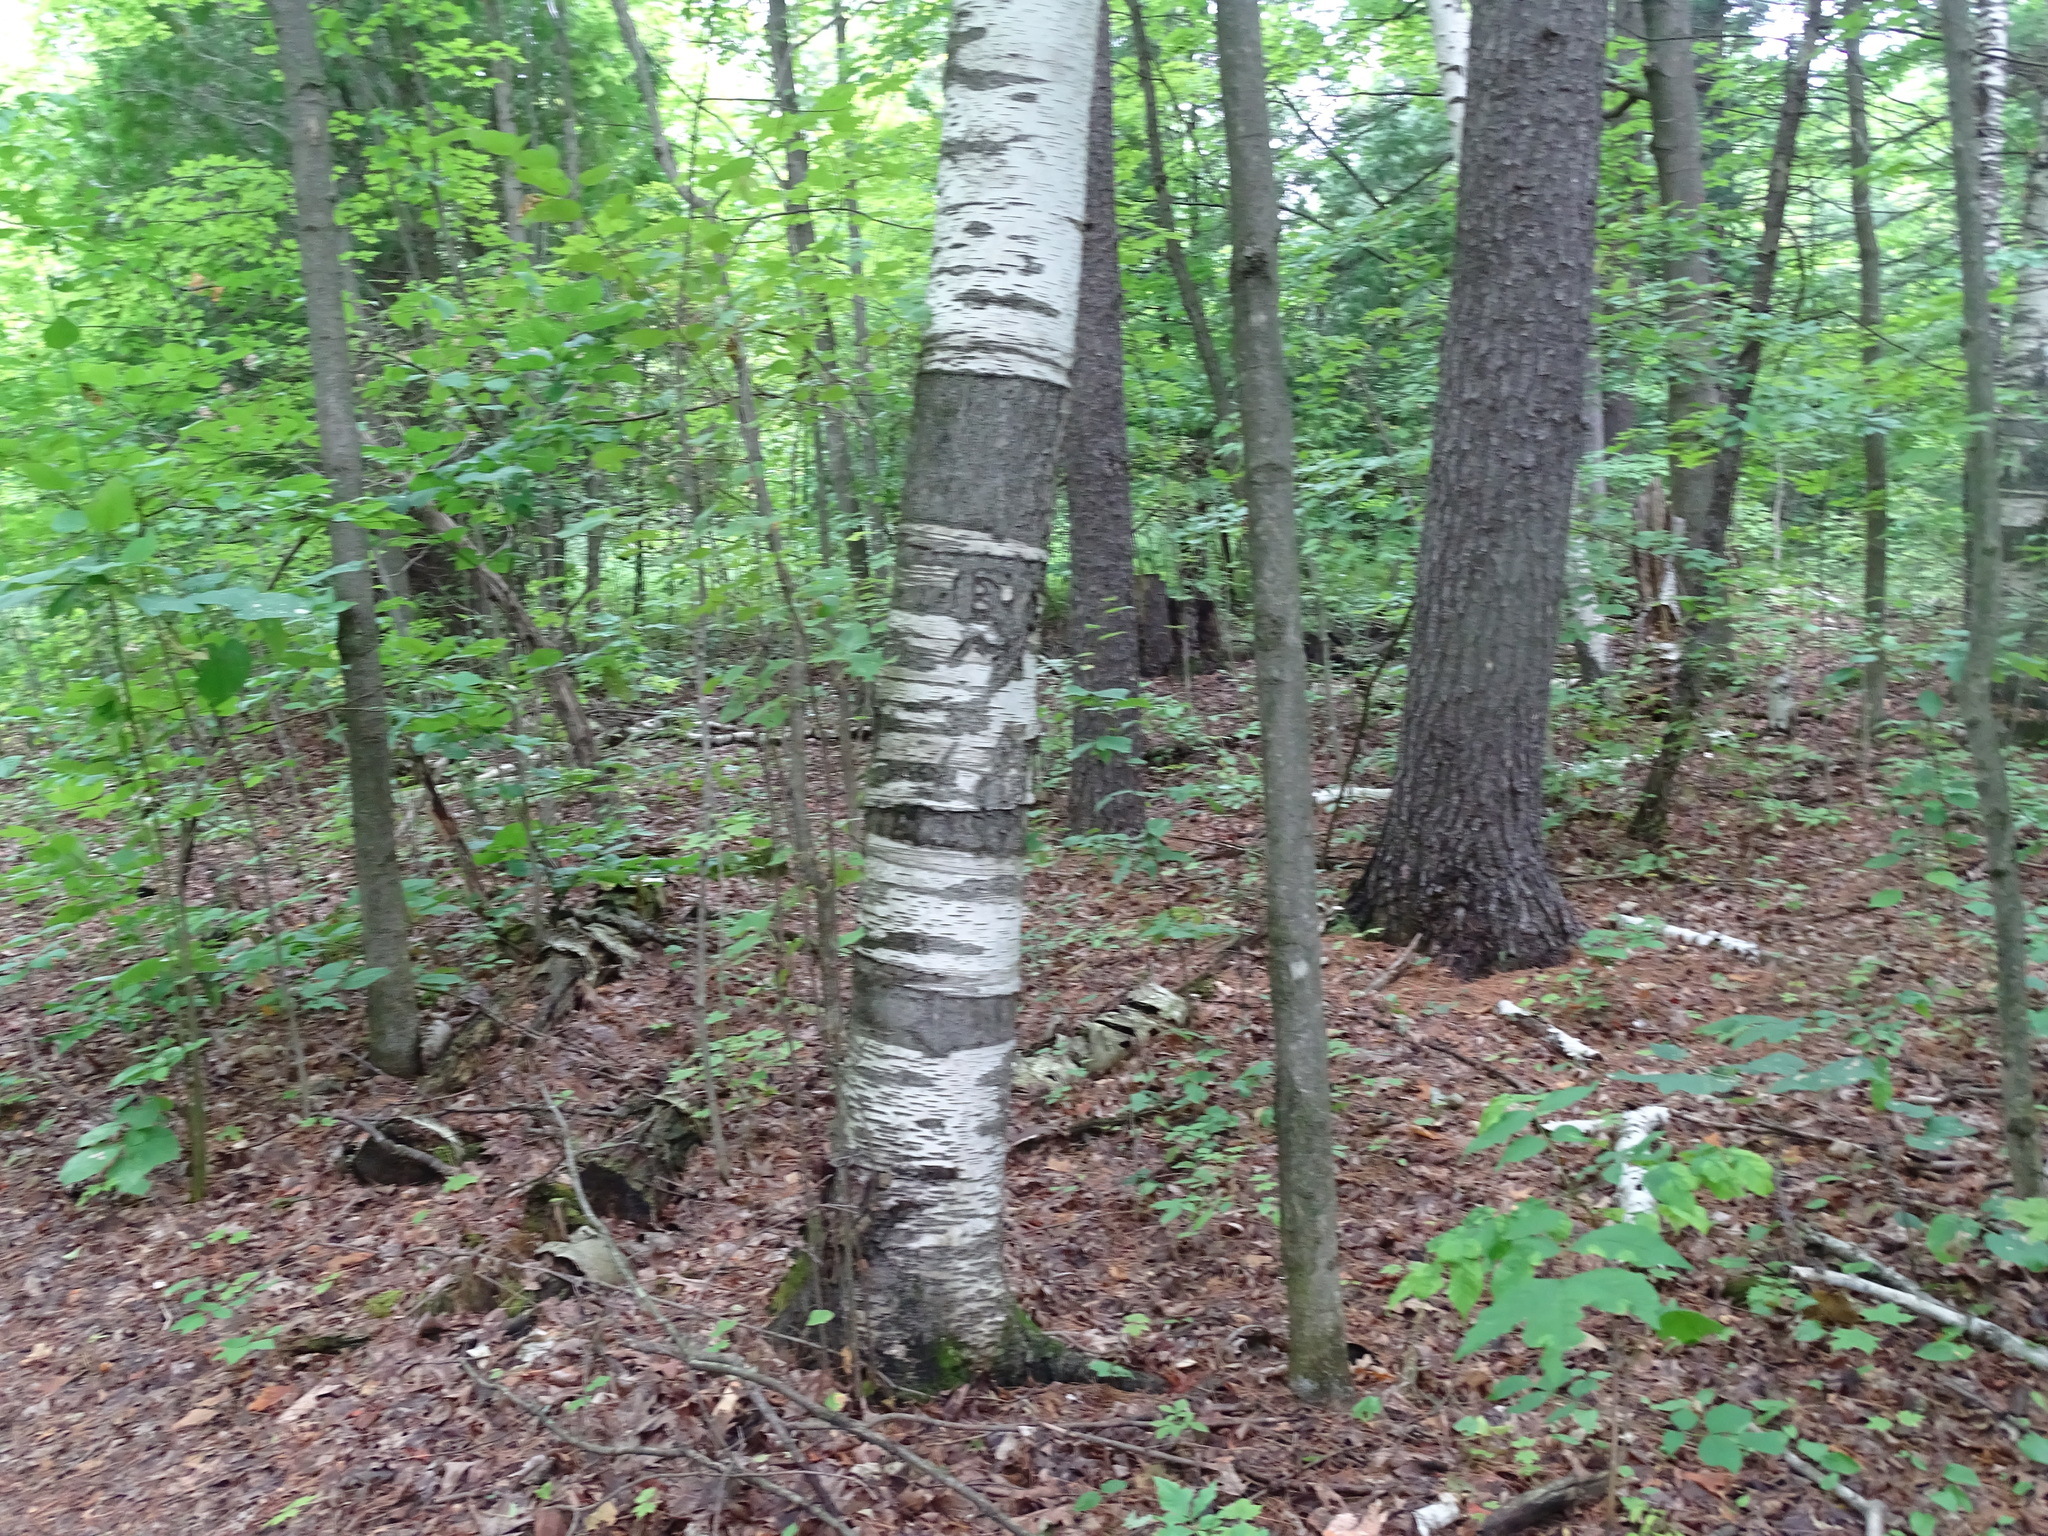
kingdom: Plantae
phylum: Tracheophyta
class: Magnoliopsida
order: Fagales
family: Betulaceae
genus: Betula
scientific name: Betula papyrifera
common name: Paper birch
